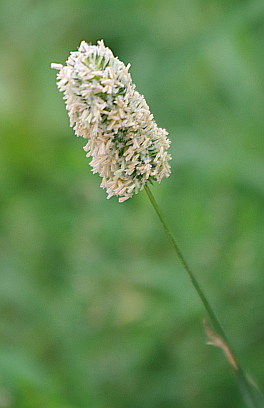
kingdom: Plantae
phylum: Tracheophyta
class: Liliopsida
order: Poales
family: Poaceae
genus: Phleum
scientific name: Phleum pratense
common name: Timothy grass
